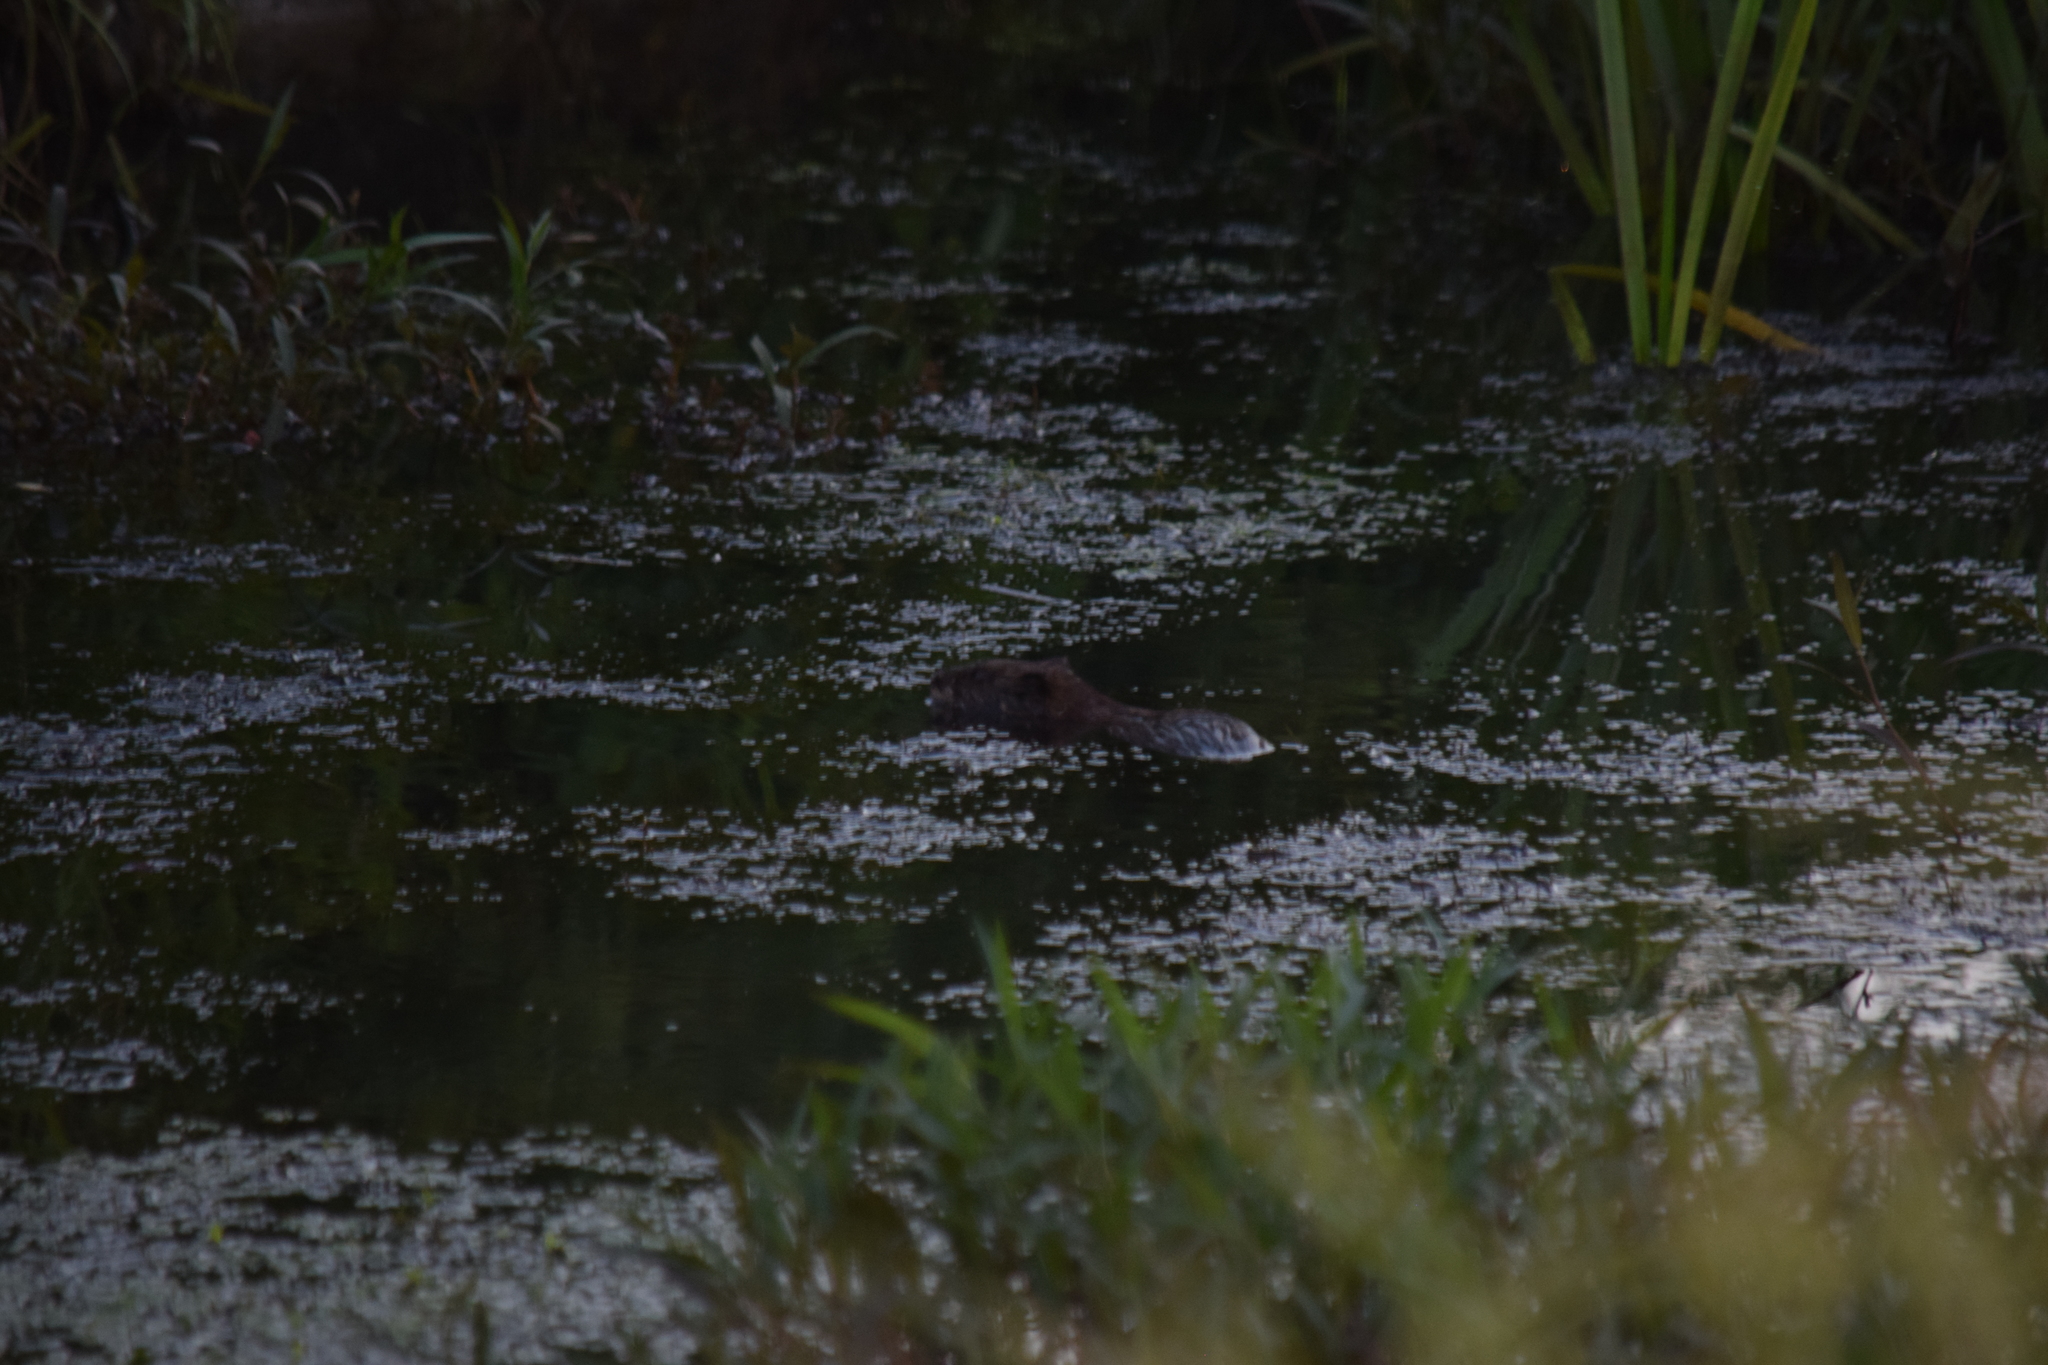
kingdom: Animalia
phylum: Chordata
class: Mammalia
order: Rodentia
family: Cricetidae
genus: Ondatra
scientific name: Ondatra zibethicus
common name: Muskrat
